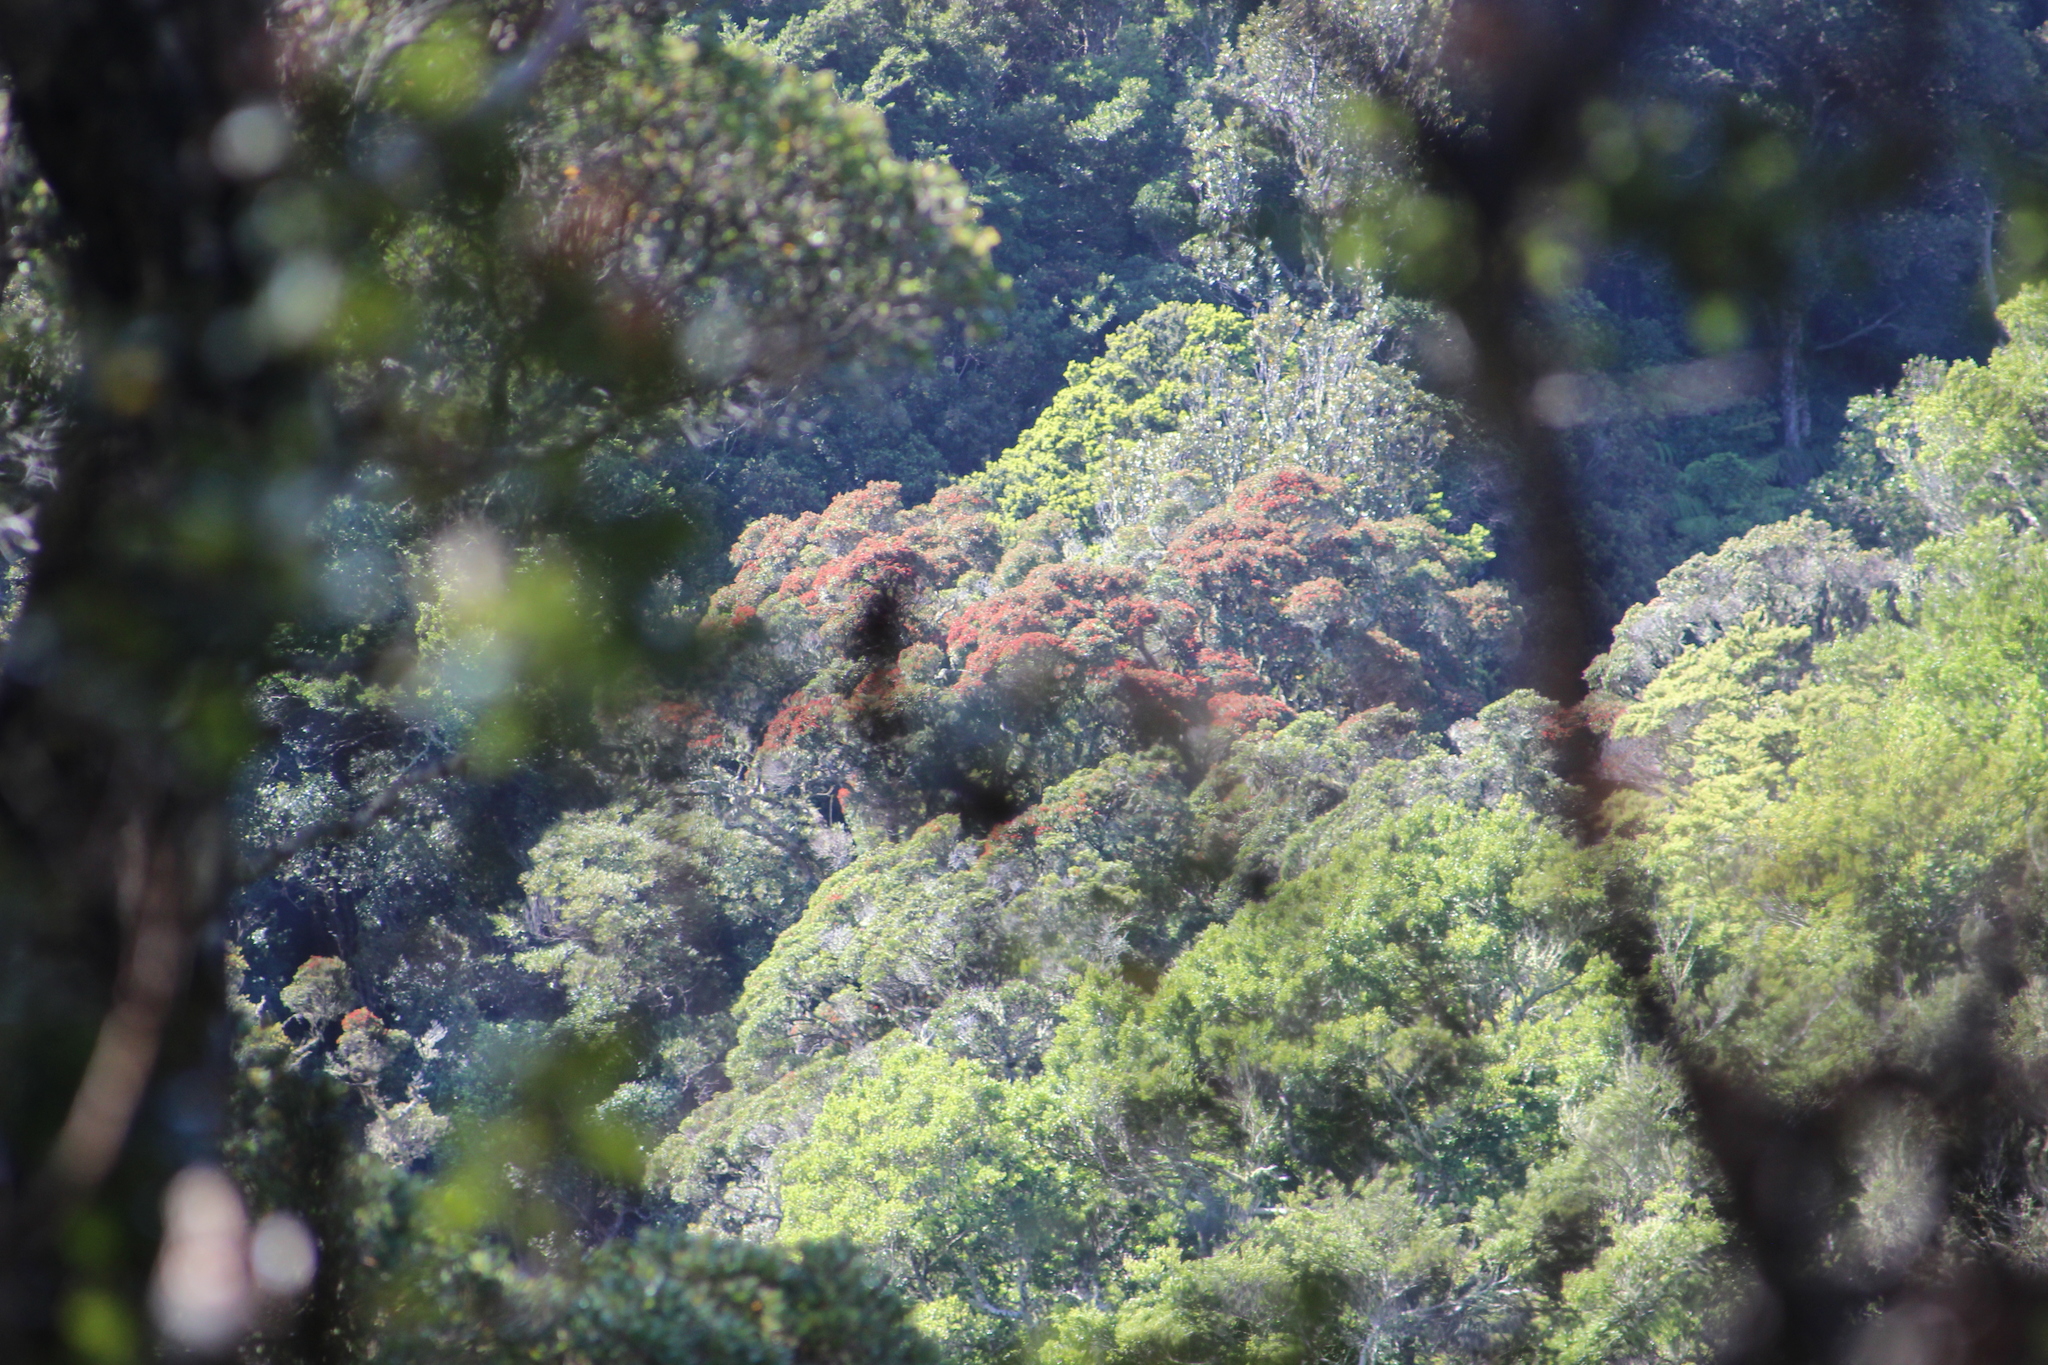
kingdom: Plantae
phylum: Tracheophyta
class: Magnoliopsida
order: Myrtales
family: Myrtaceae
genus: Metrosideros
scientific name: Metrosideros robusta
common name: Northern rata
